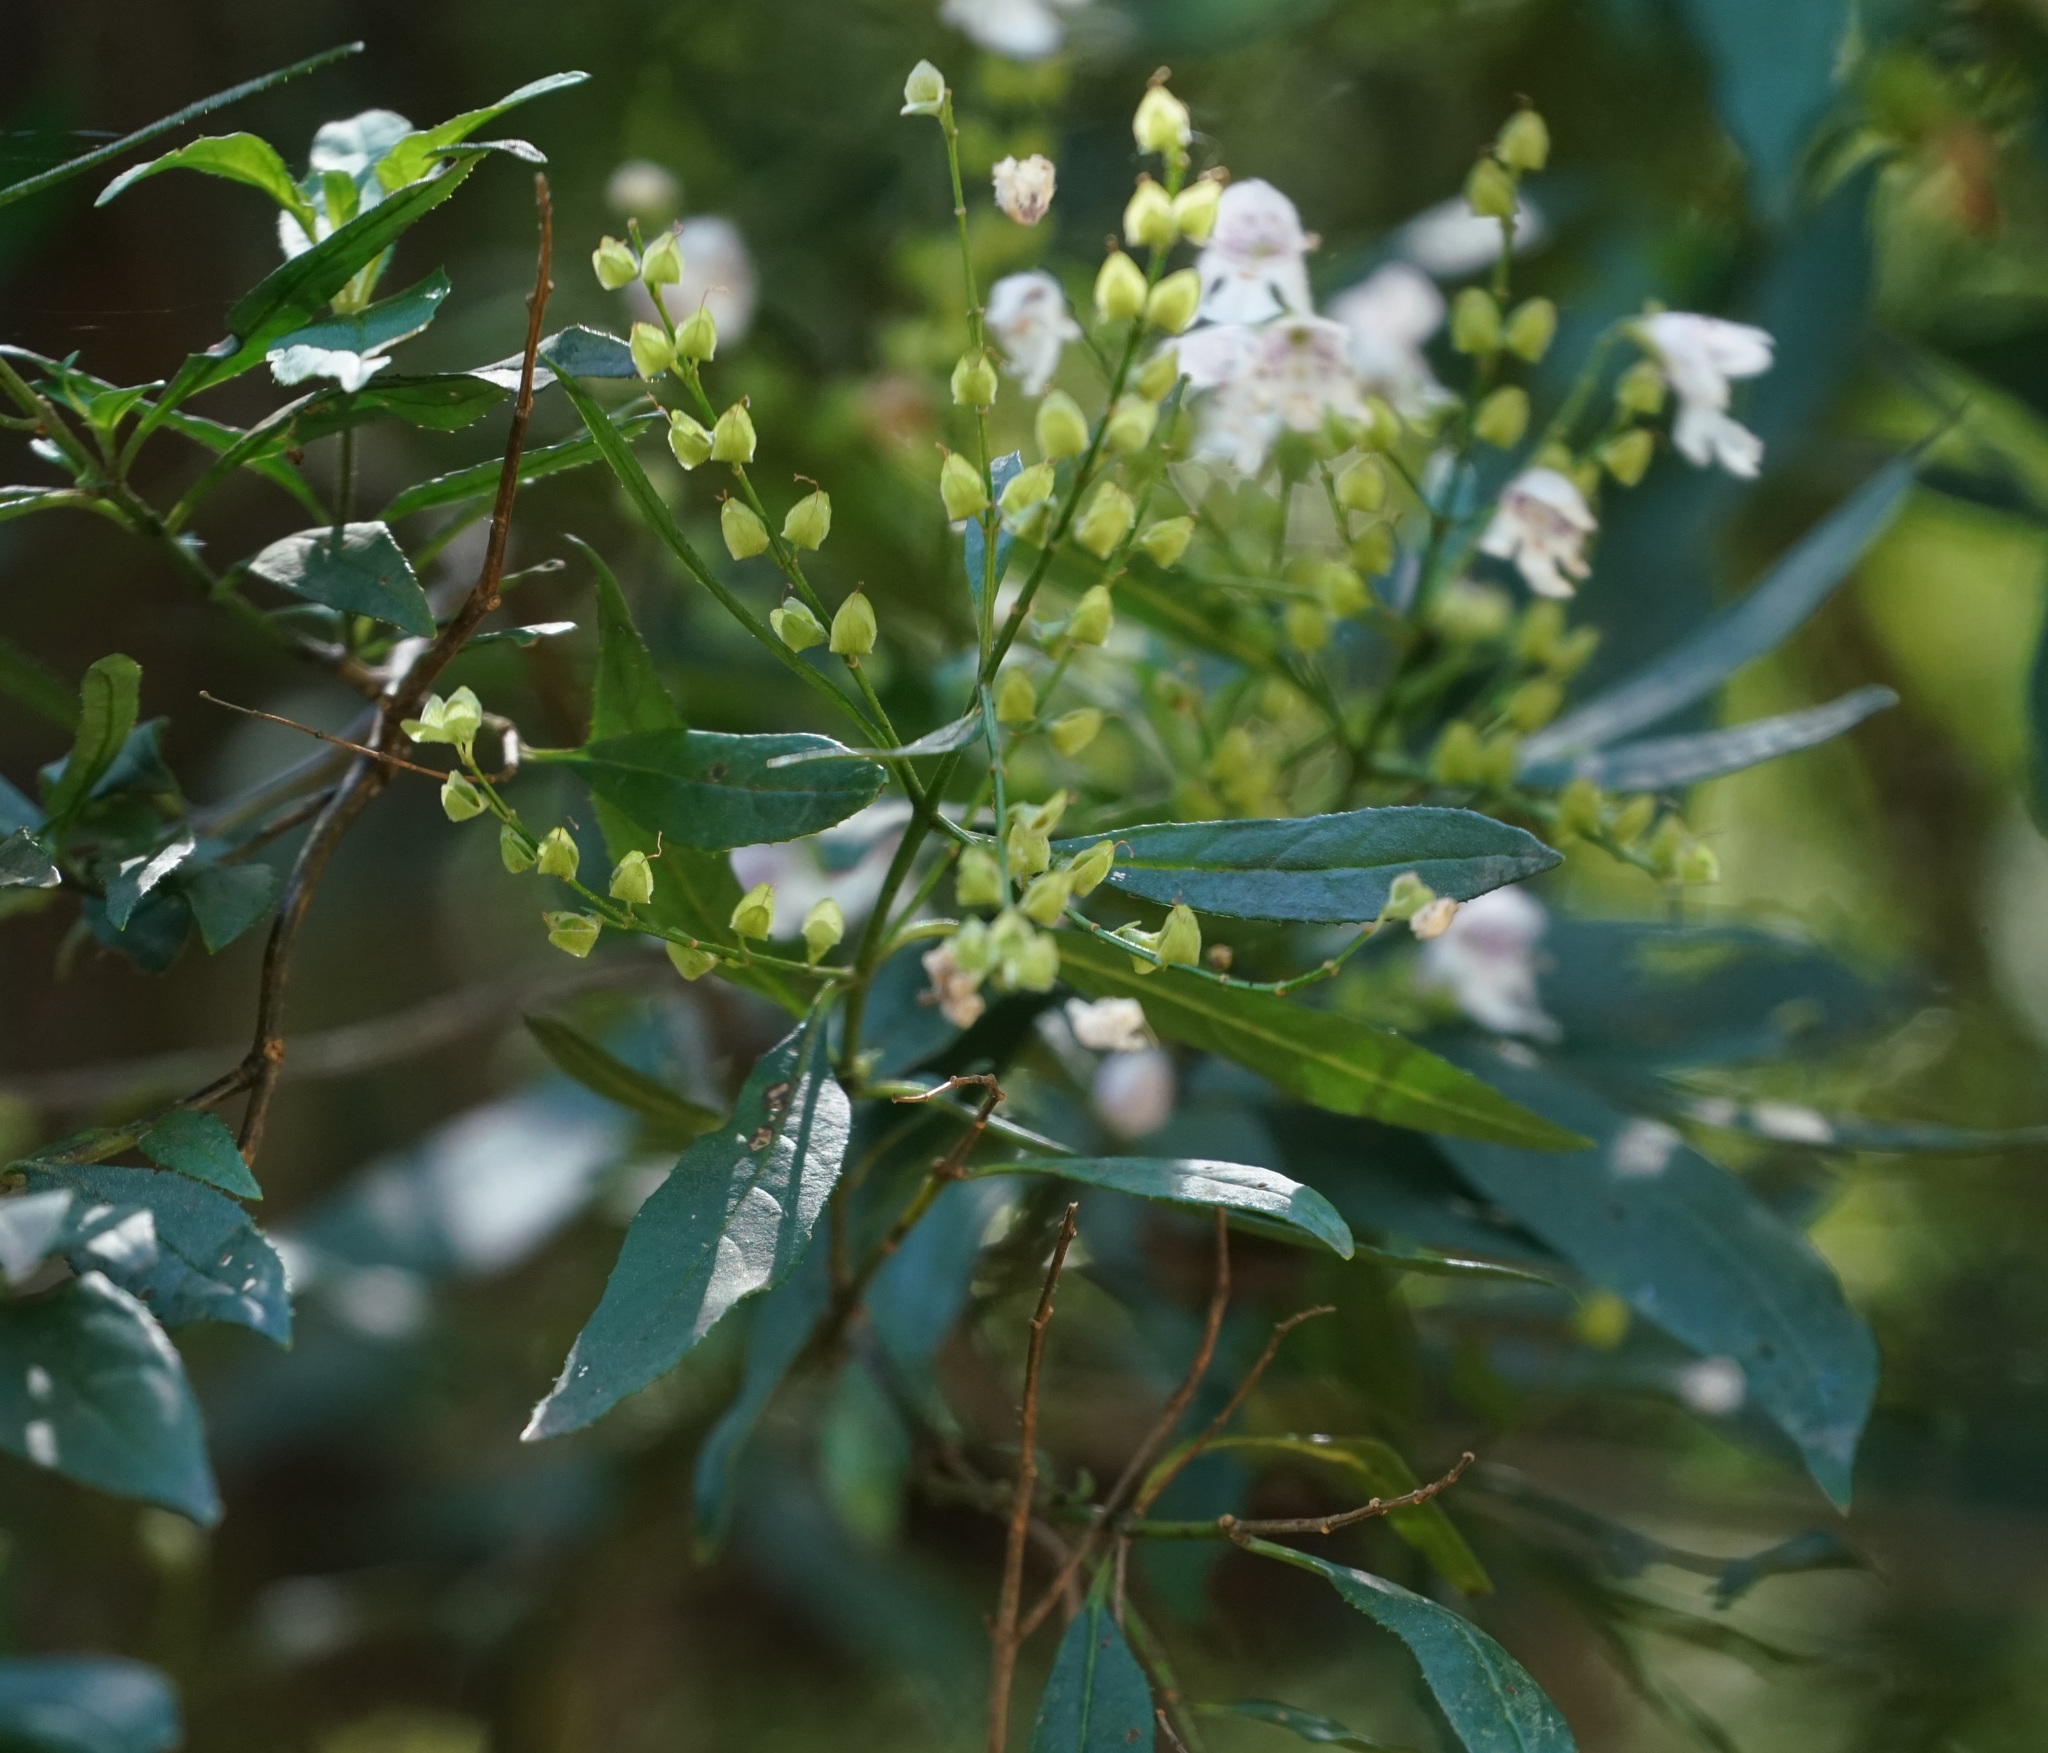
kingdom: Plantae
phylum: Tracheophyta
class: Magnoliopsida
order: Lamiales
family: Lamiaceae
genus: Prostanthera
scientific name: Prostanthera lasianthos
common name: Mountain-lilac
